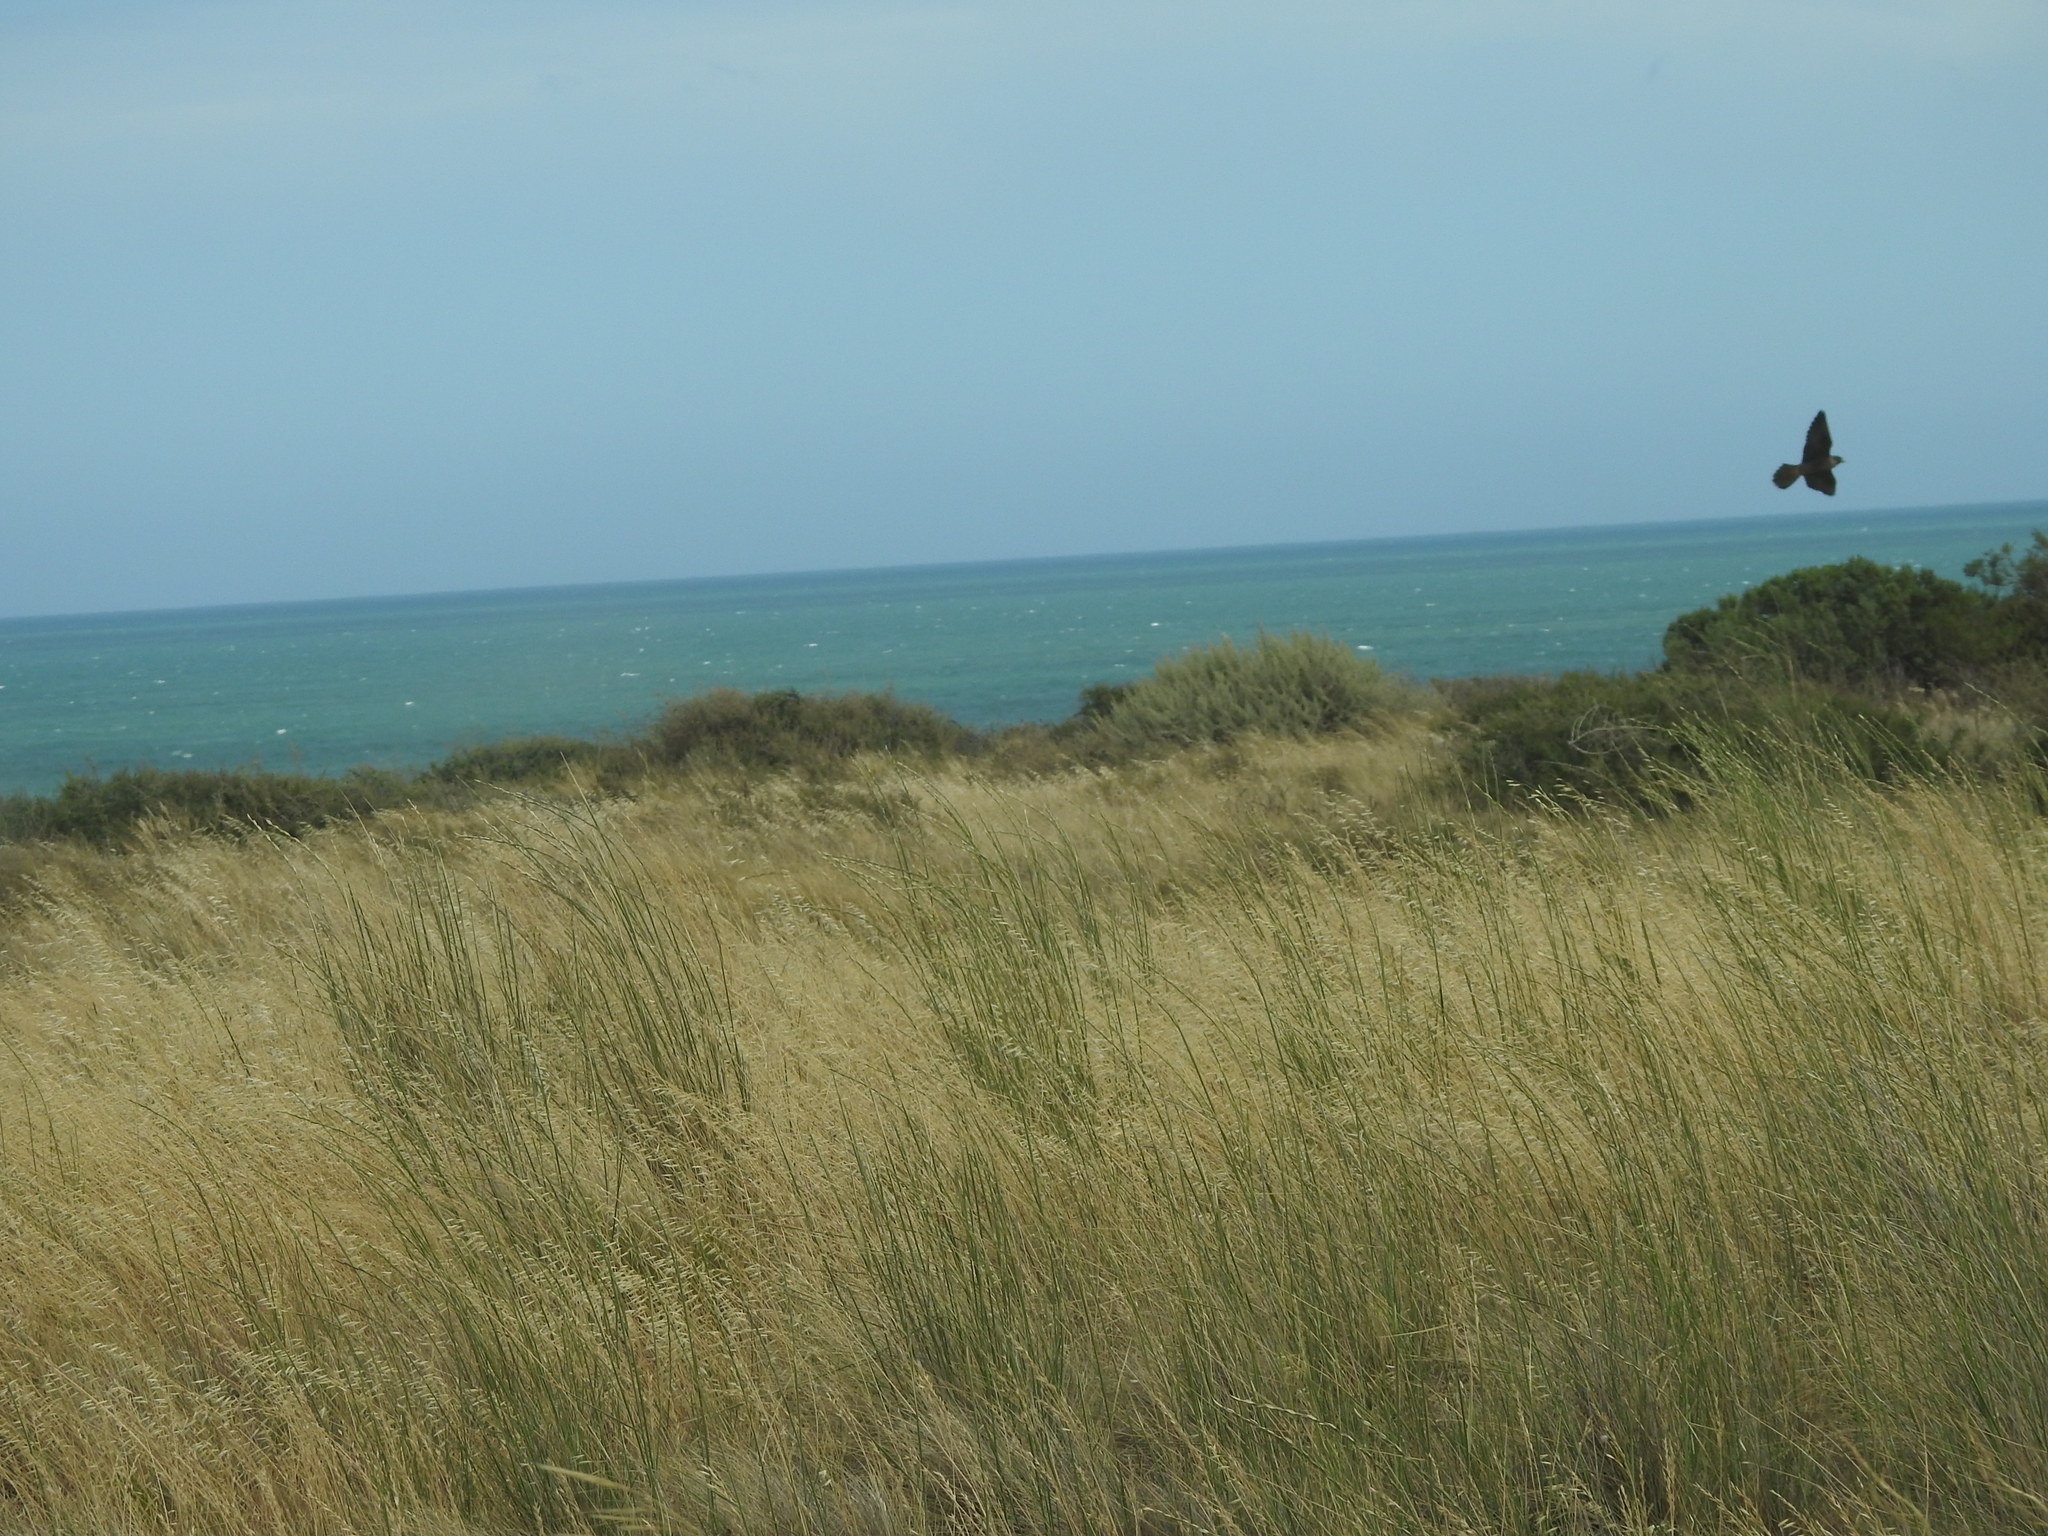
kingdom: Animalia
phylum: Chordata
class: Aves
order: Falconiformes
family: Falconidae
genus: Falco
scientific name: Falco peregrinus
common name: Peregrine falcon
